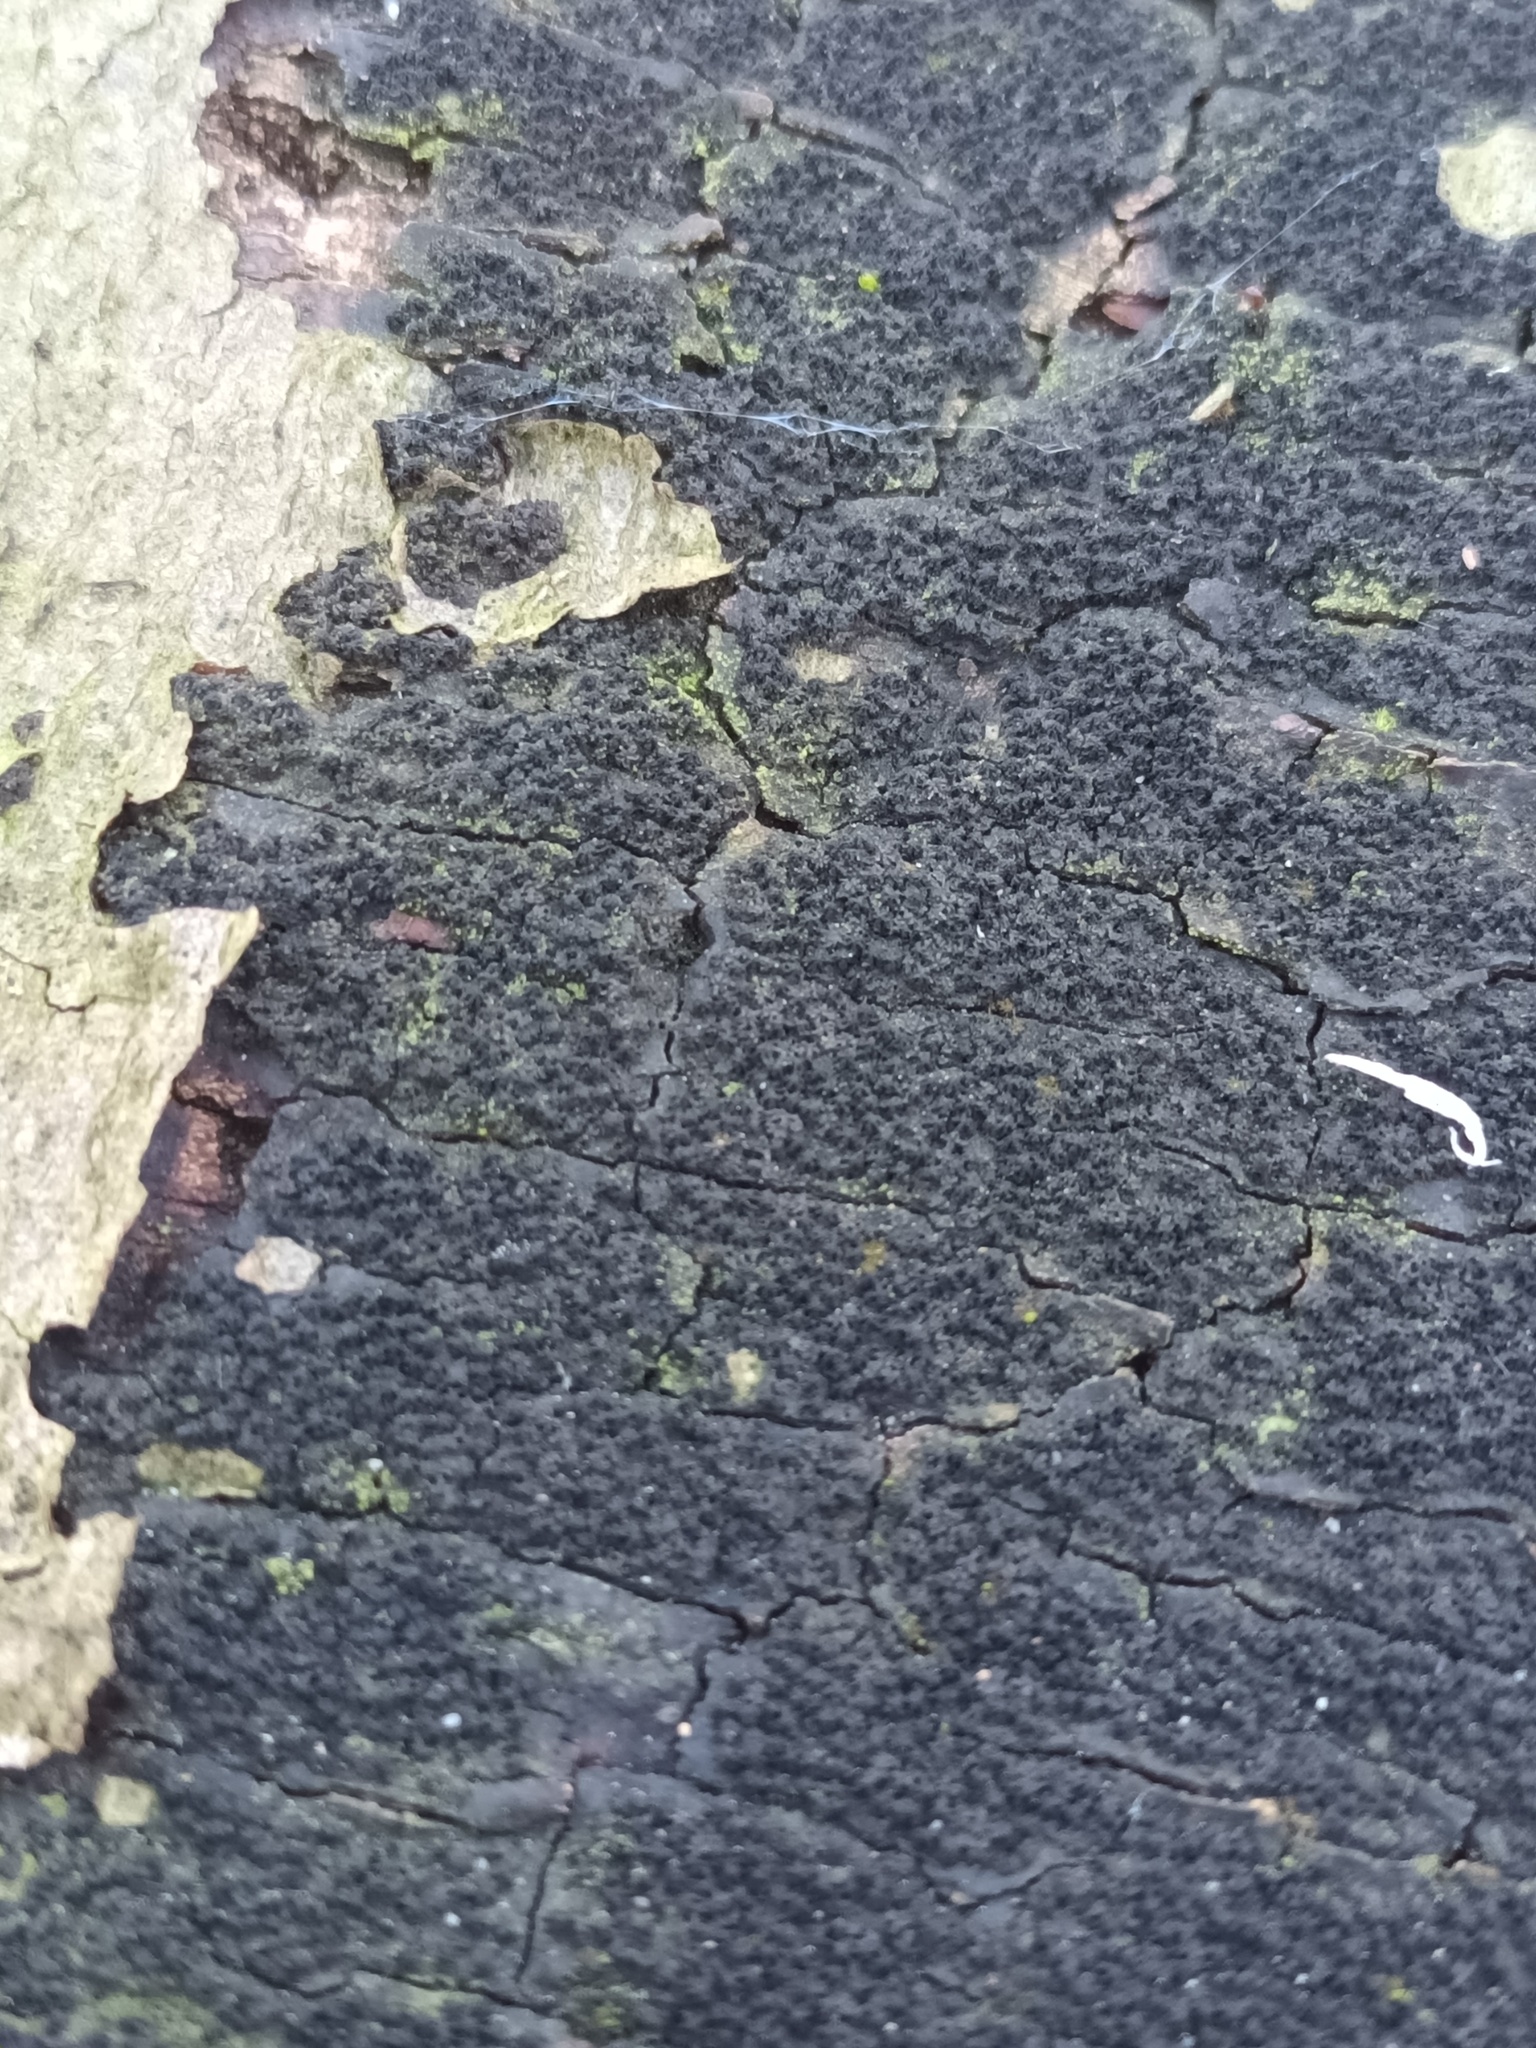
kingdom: Fungi
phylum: Ascomycota
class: Sordariomycetes
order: Xylariales
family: Diatrypaceae
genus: Eutypa
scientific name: Eutypa spinosa
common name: Spiral tarcrust
